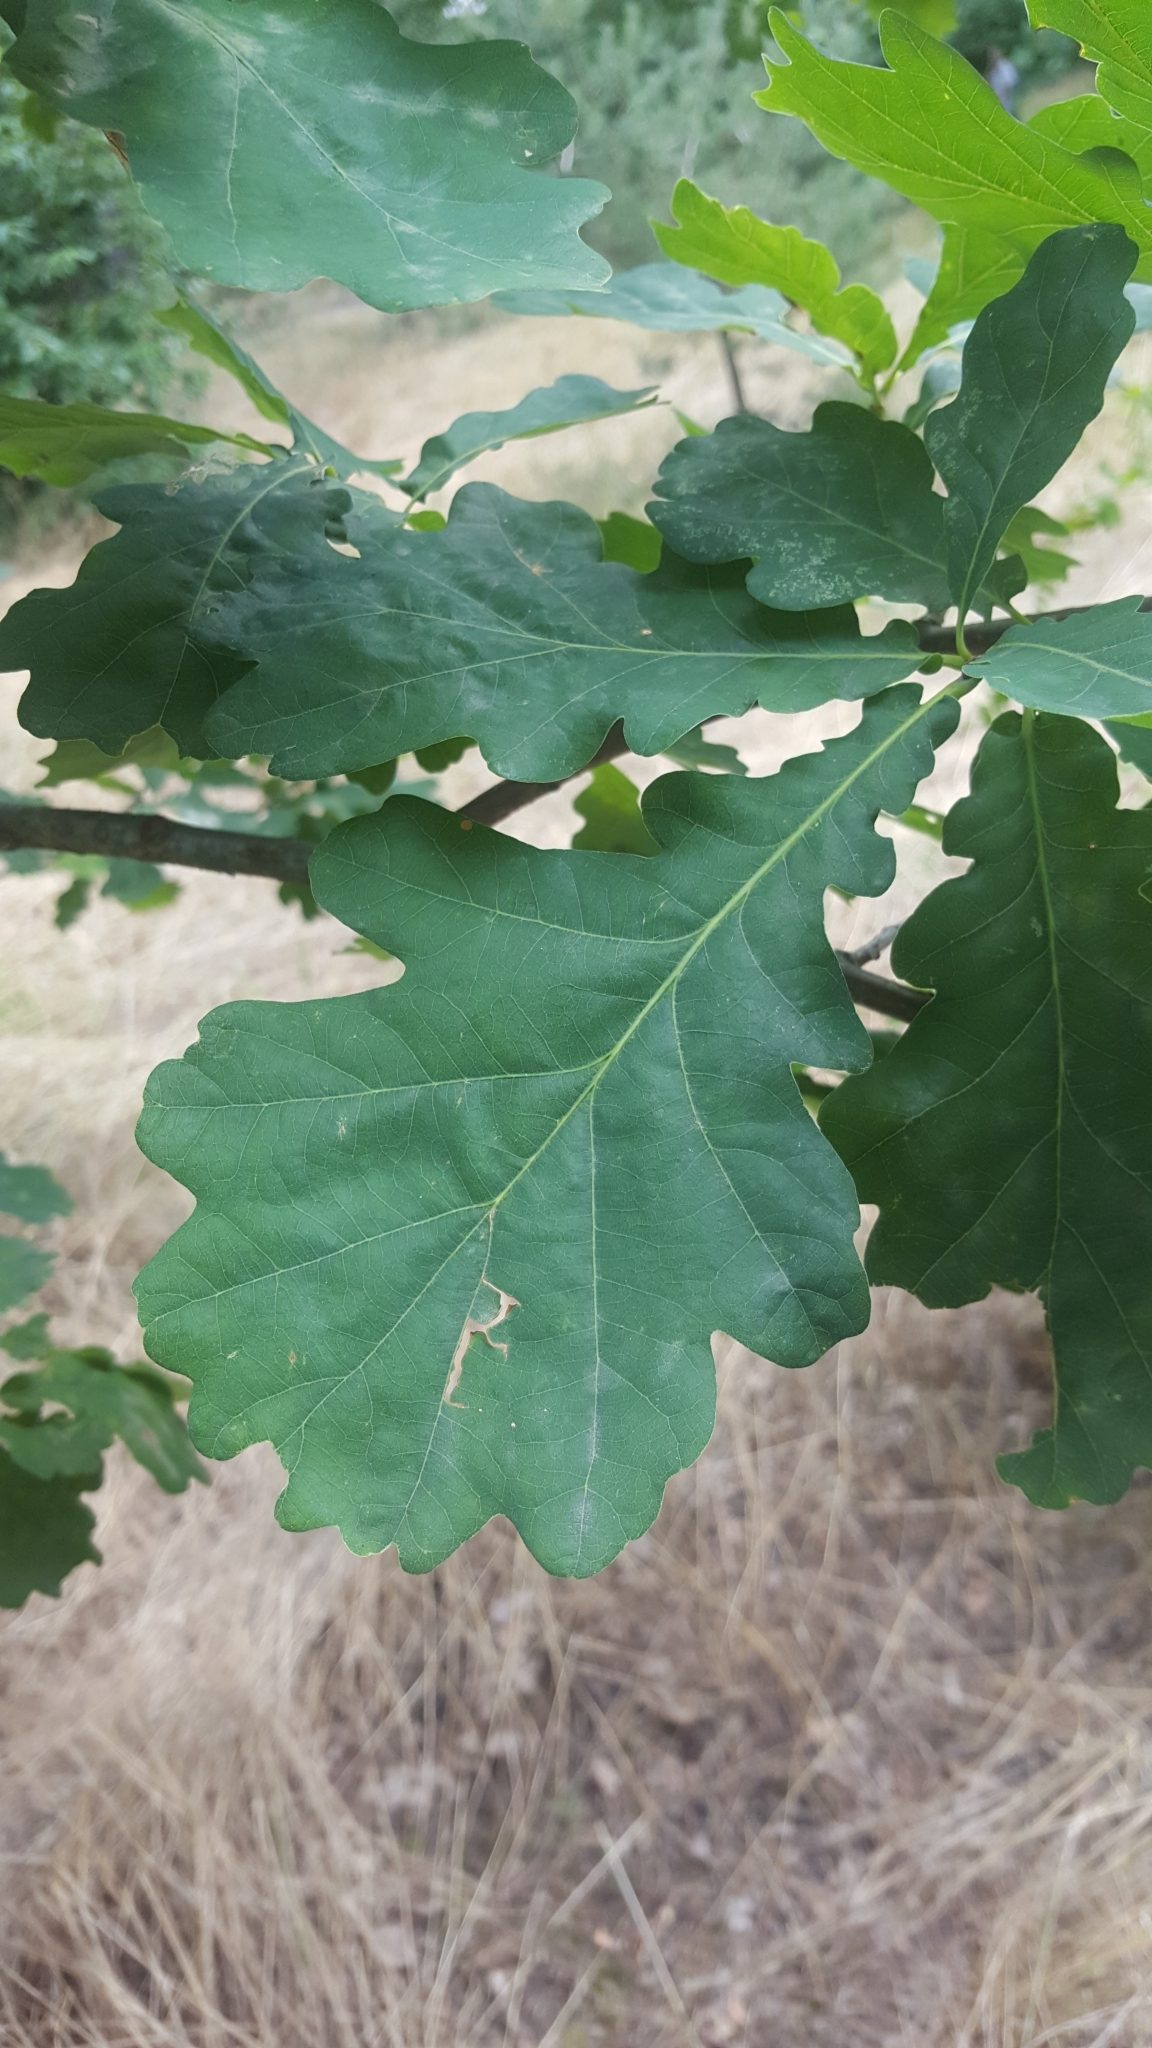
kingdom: Plantae
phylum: Tracheophyta
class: Magnoliopsida
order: Fagales
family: Fagaceae
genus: Quercus
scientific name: Quercus robur
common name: Pedunculate oak
